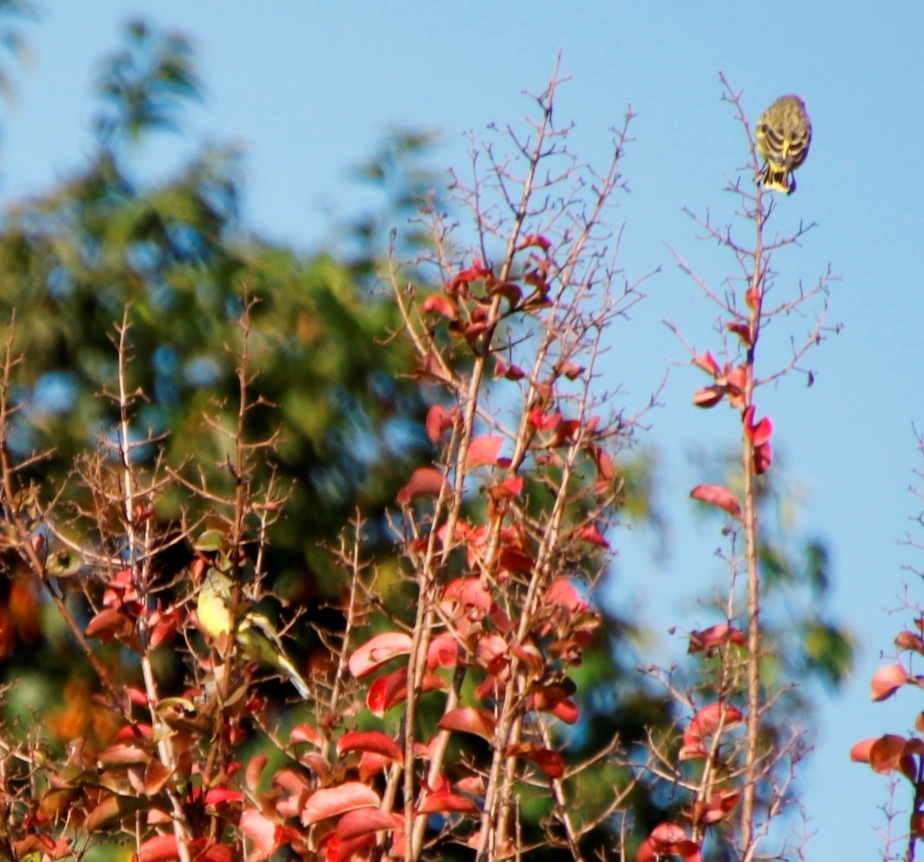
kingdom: Animalia
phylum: Chordata
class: Aves
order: Passeriformes
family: Fringillidae
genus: Crithagra
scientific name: Crithagra mozambica
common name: Yellow-fronted canary
